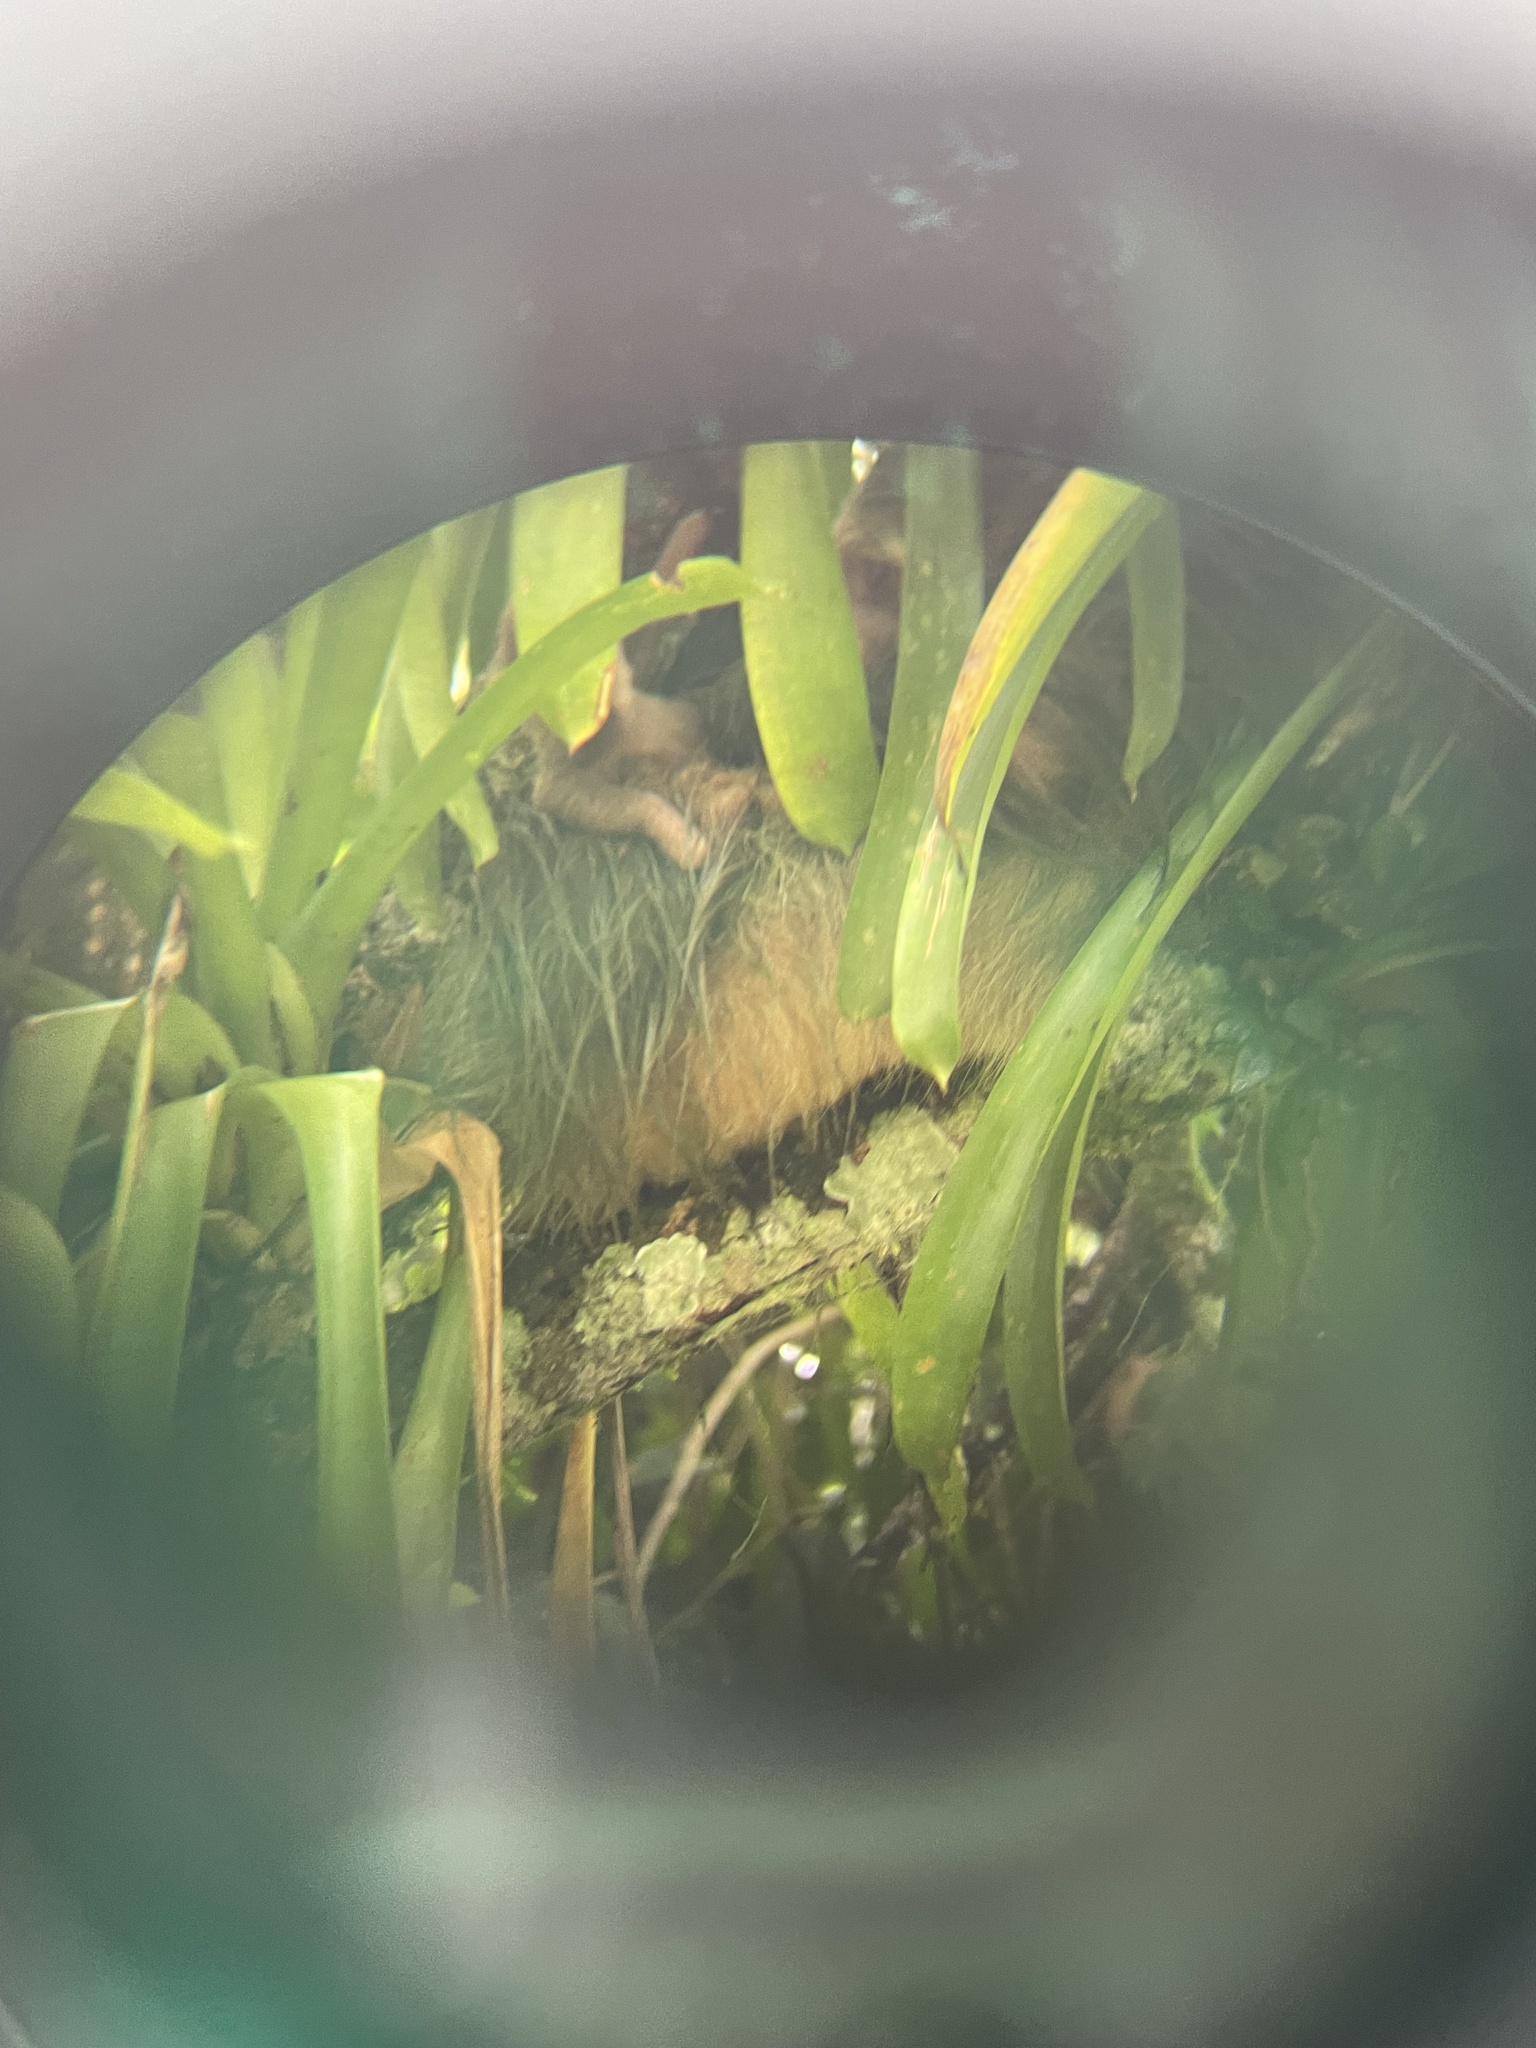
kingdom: Animalia
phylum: Chordata
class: Mammalia
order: Pilosa
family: Megalonychidae
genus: Choloepus
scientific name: Choloepus hoffmanni
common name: Hoffmann's two-toed sloth
